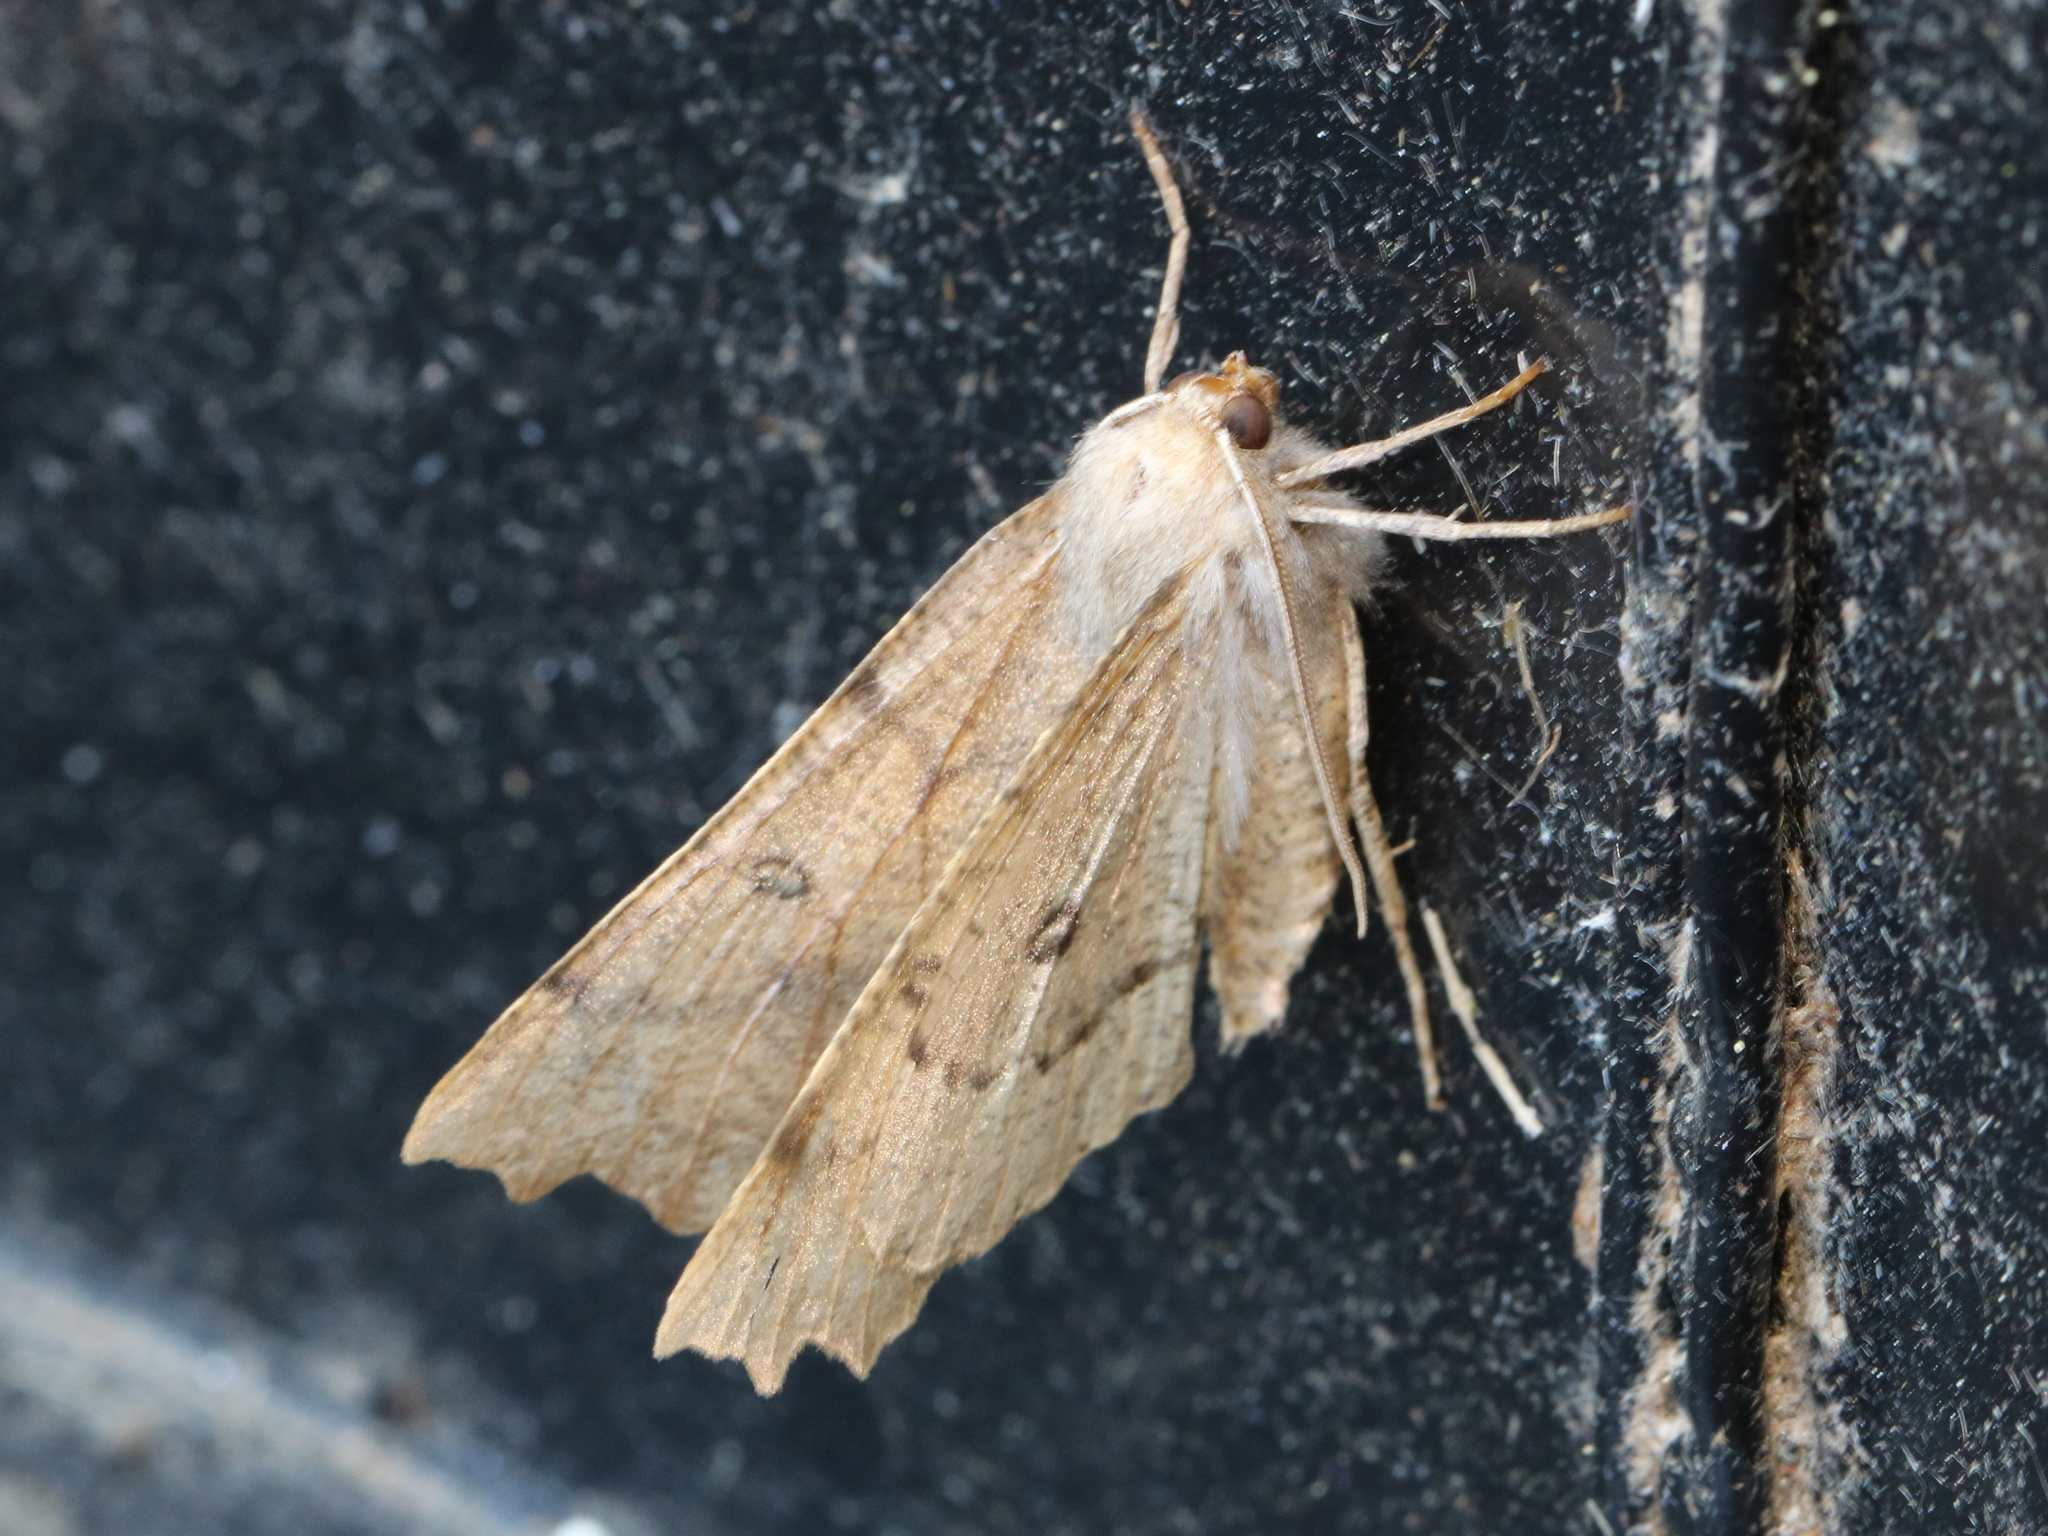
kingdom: Animalia
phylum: Arthropoda
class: Insecta
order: Lepidoptera
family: Geometridae
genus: Odontopera
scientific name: Odontopera bidentata
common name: Scalloped hazel
